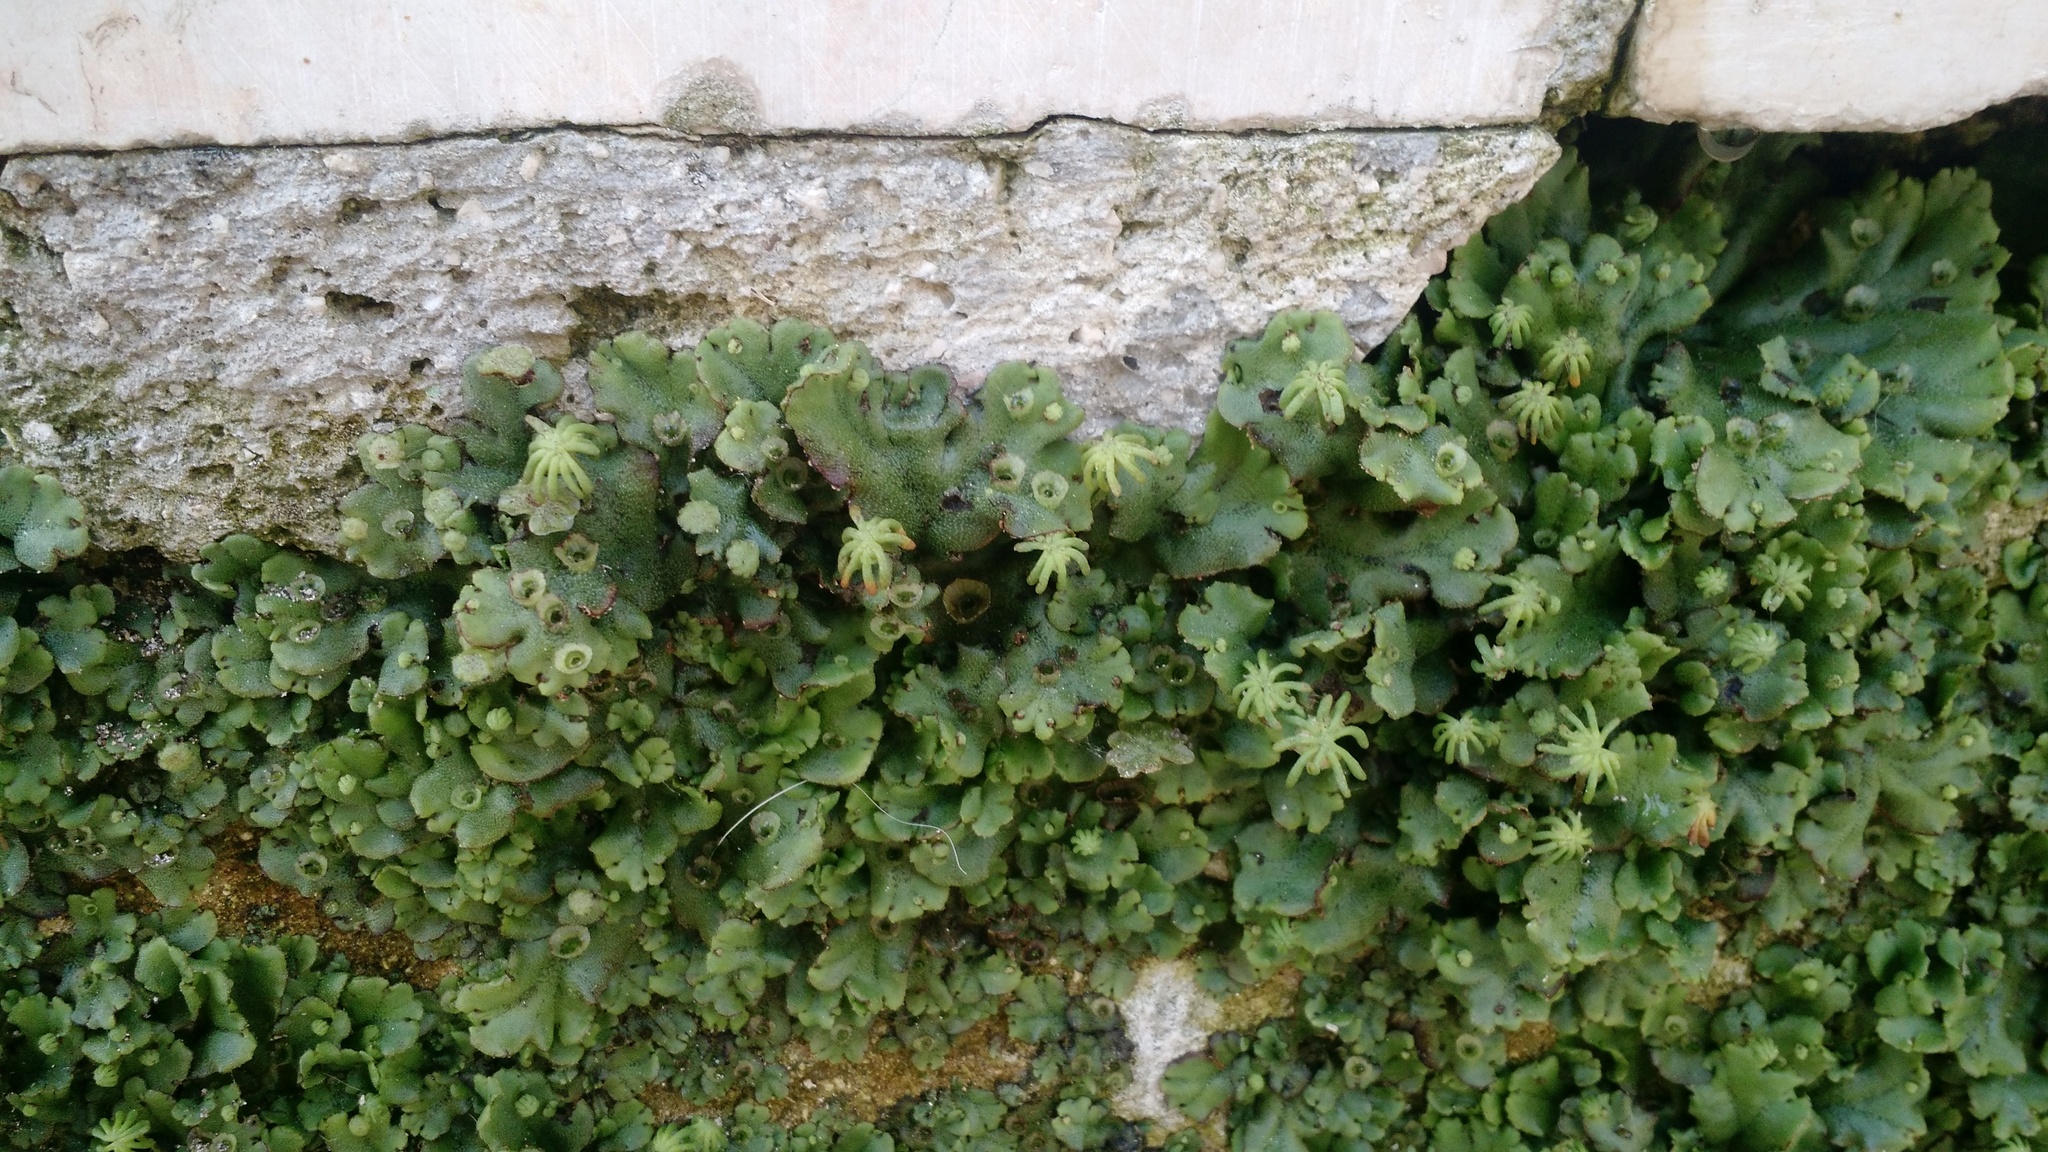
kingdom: Plantae
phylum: Marchantiophyta
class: Marchantiopsida
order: Marchantiales
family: Marchantiaceae
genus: Marchantia
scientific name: Marchantia polymorpha
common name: Common liverwort
